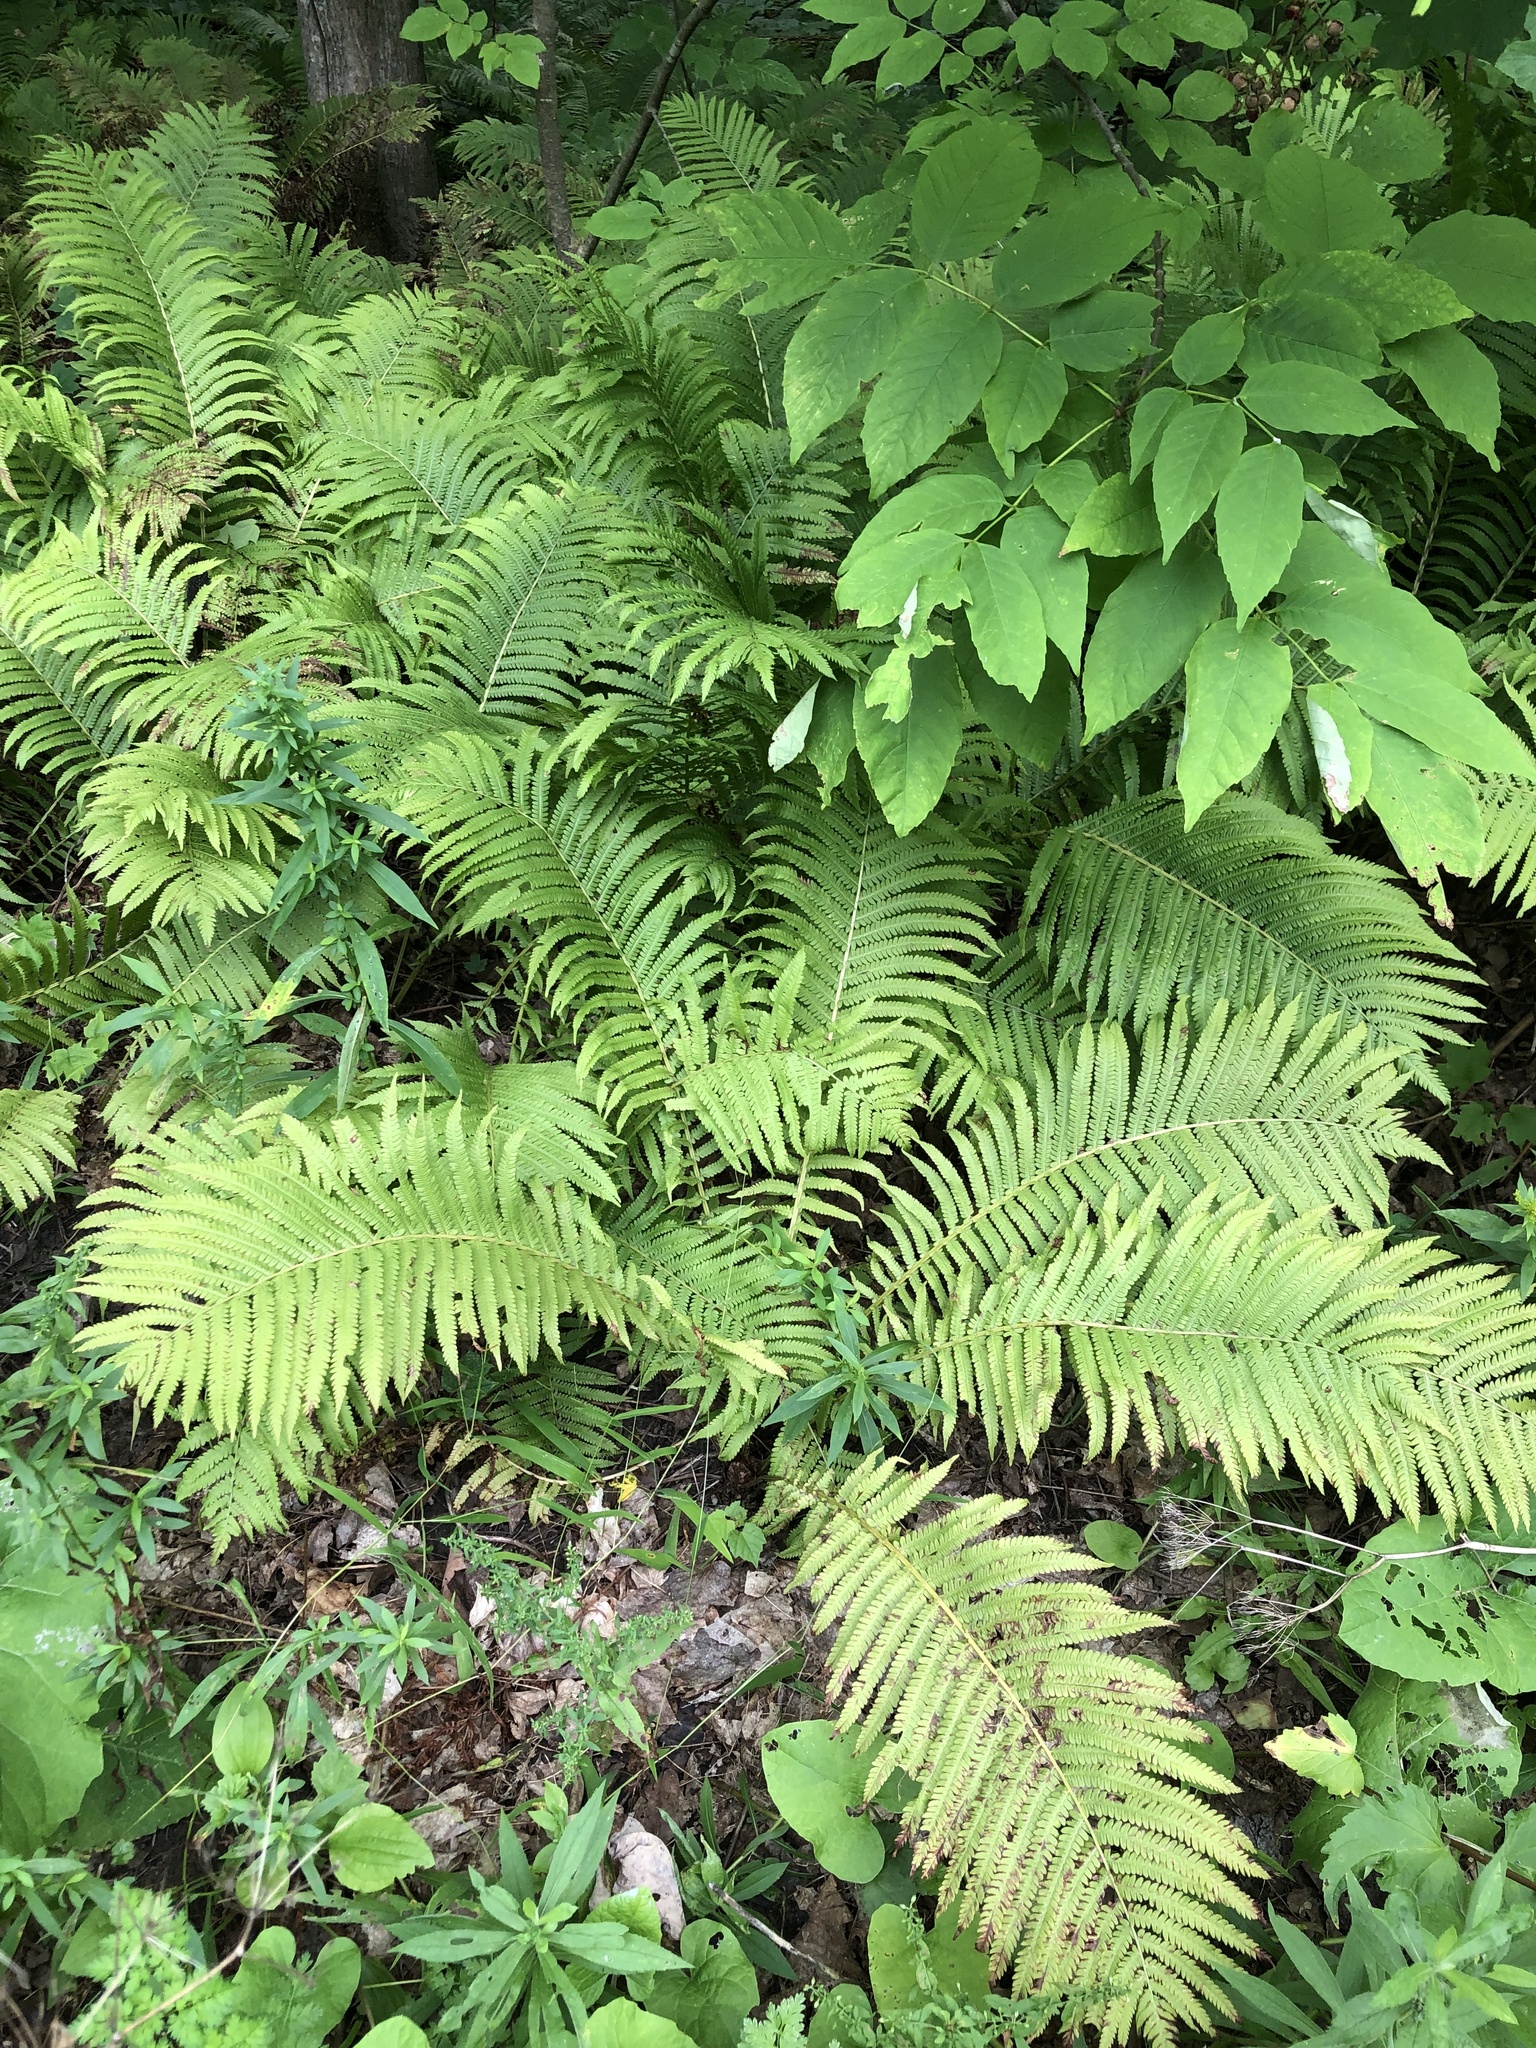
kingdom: Plantae
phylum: Tracheophyta
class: Polypodiopsida
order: Polypodiales
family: Onocleaceae
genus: Matteuccia
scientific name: Matteuccia struthiopteris
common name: Ostrich fern
